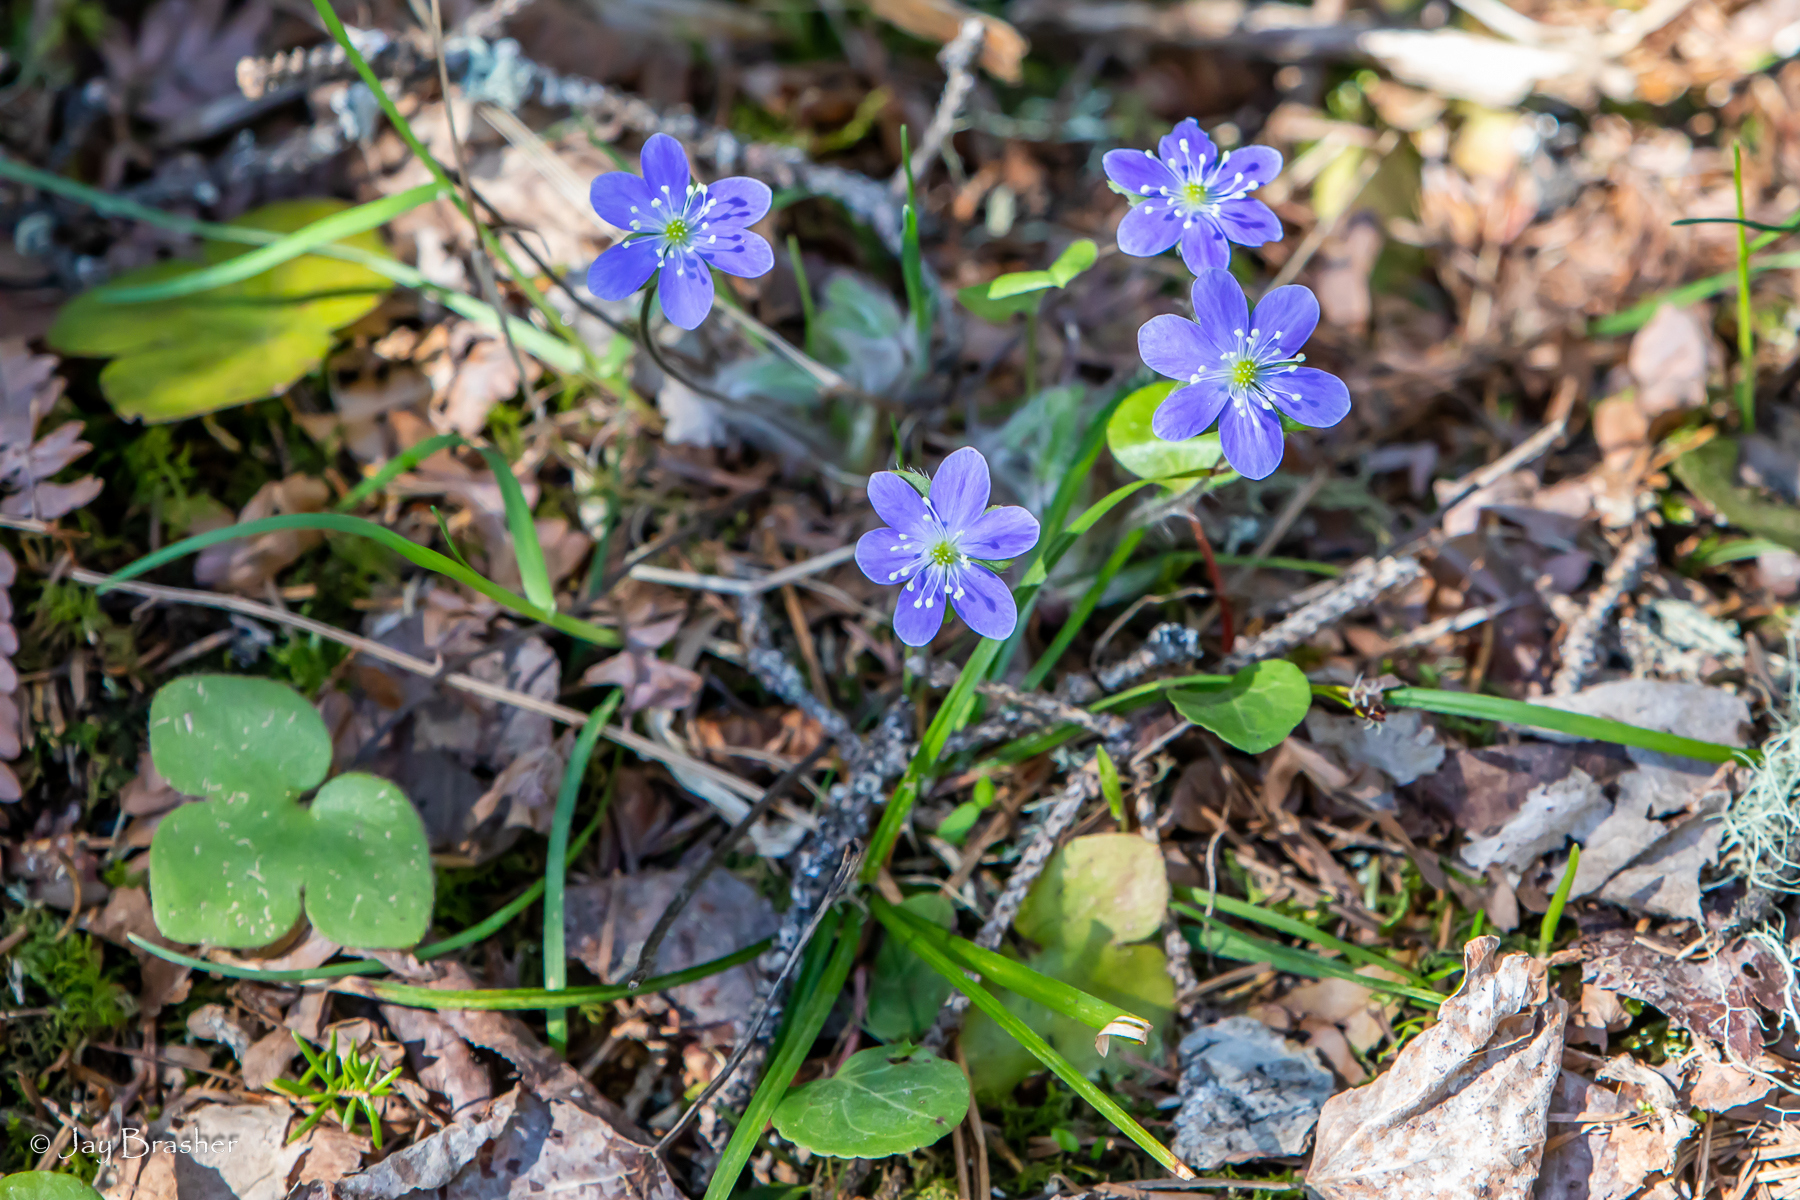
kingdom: Plantae
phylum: Tracheophyta
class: Magnoliopsida
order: Ranunculales
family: Ranunculaceae
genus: Hepatica
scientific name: Hepatica americana
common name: American hepatica
